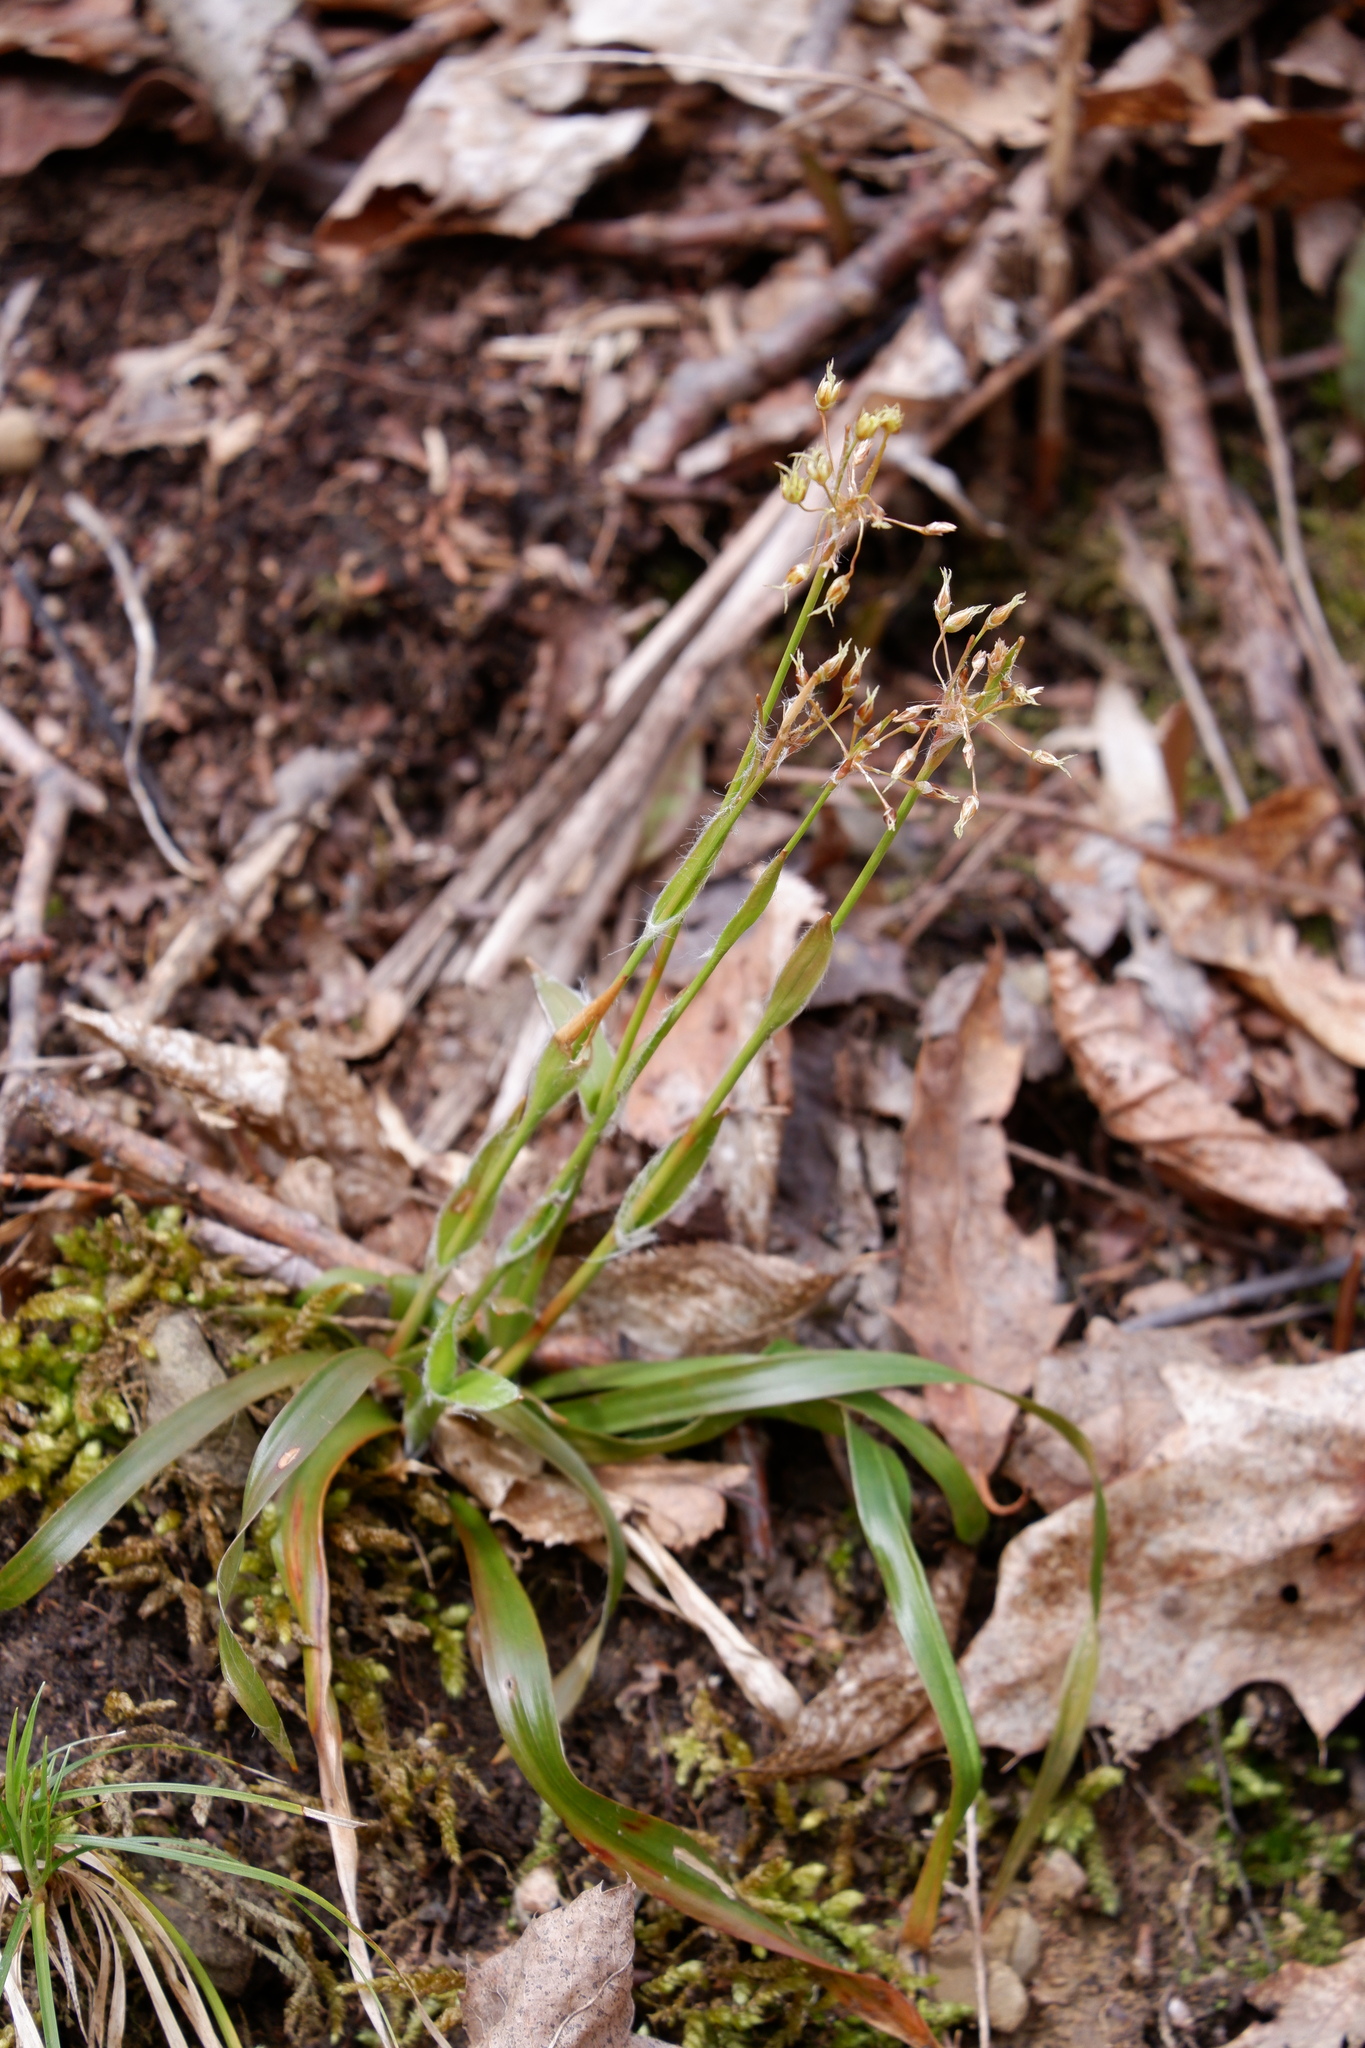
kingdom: Plantae
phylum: Tracheophyta
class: Liliopsida
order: Poales
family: Juncaceae
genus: Luzula
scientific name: Luzula acuminata
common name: Hairy woodrush
